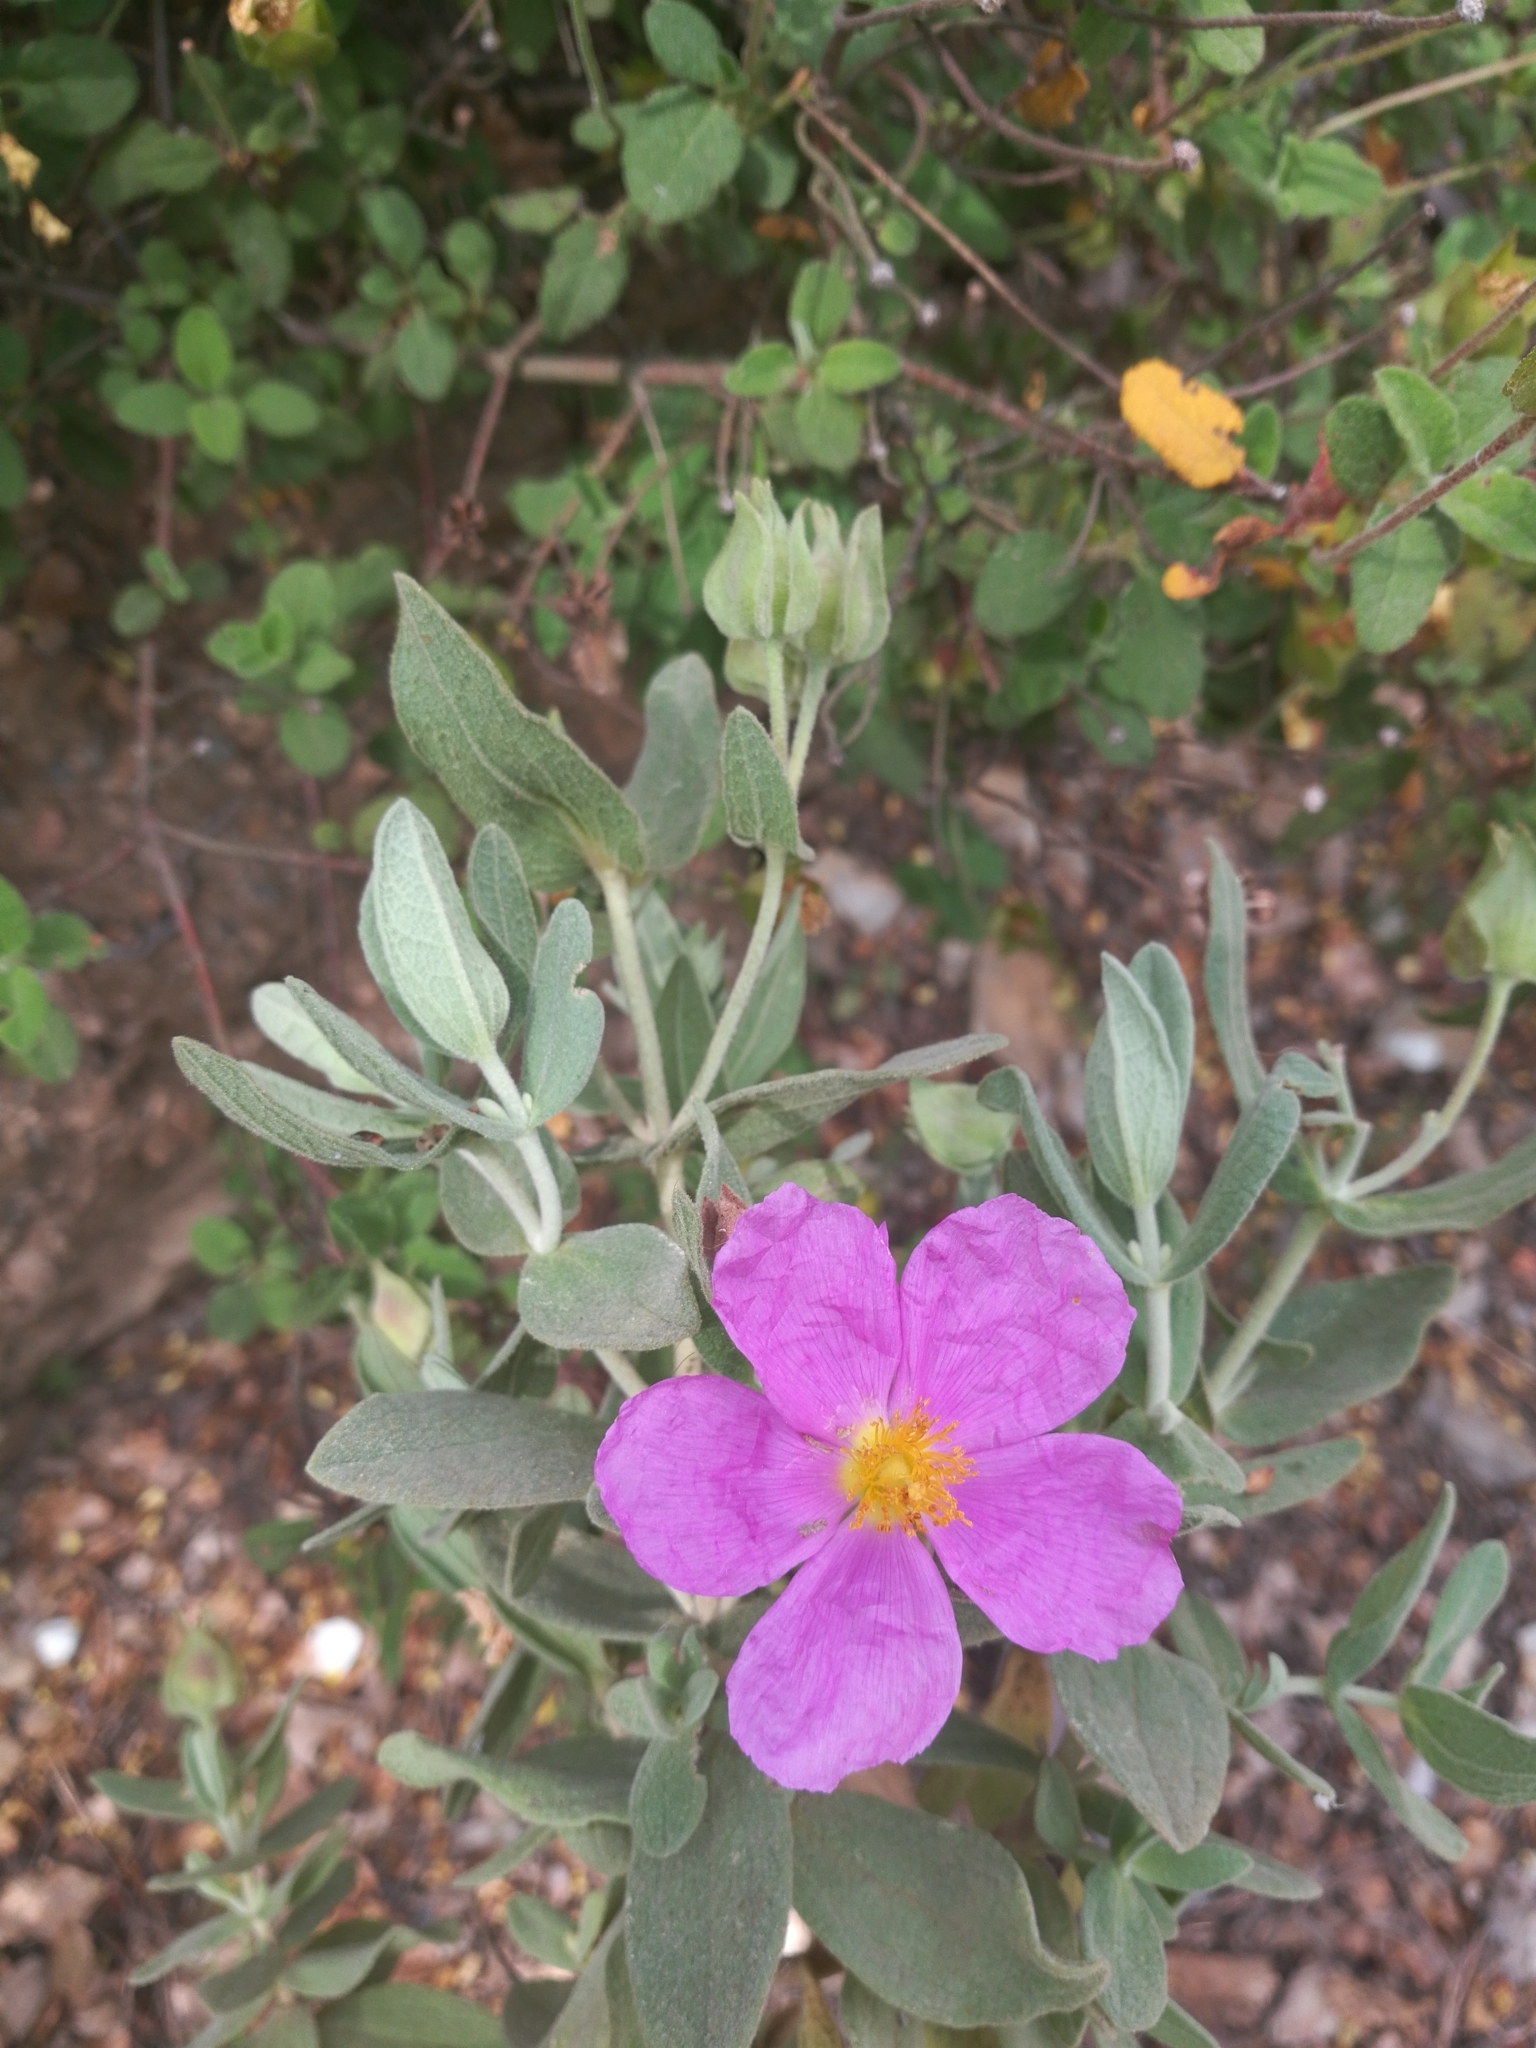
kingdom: Plantae
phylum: Tracheophyta
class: Magnoliopsida
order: Malvales
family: Cistaceae
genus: Cistus
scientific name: Cistus albidus
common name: White-leaf rock-rose
